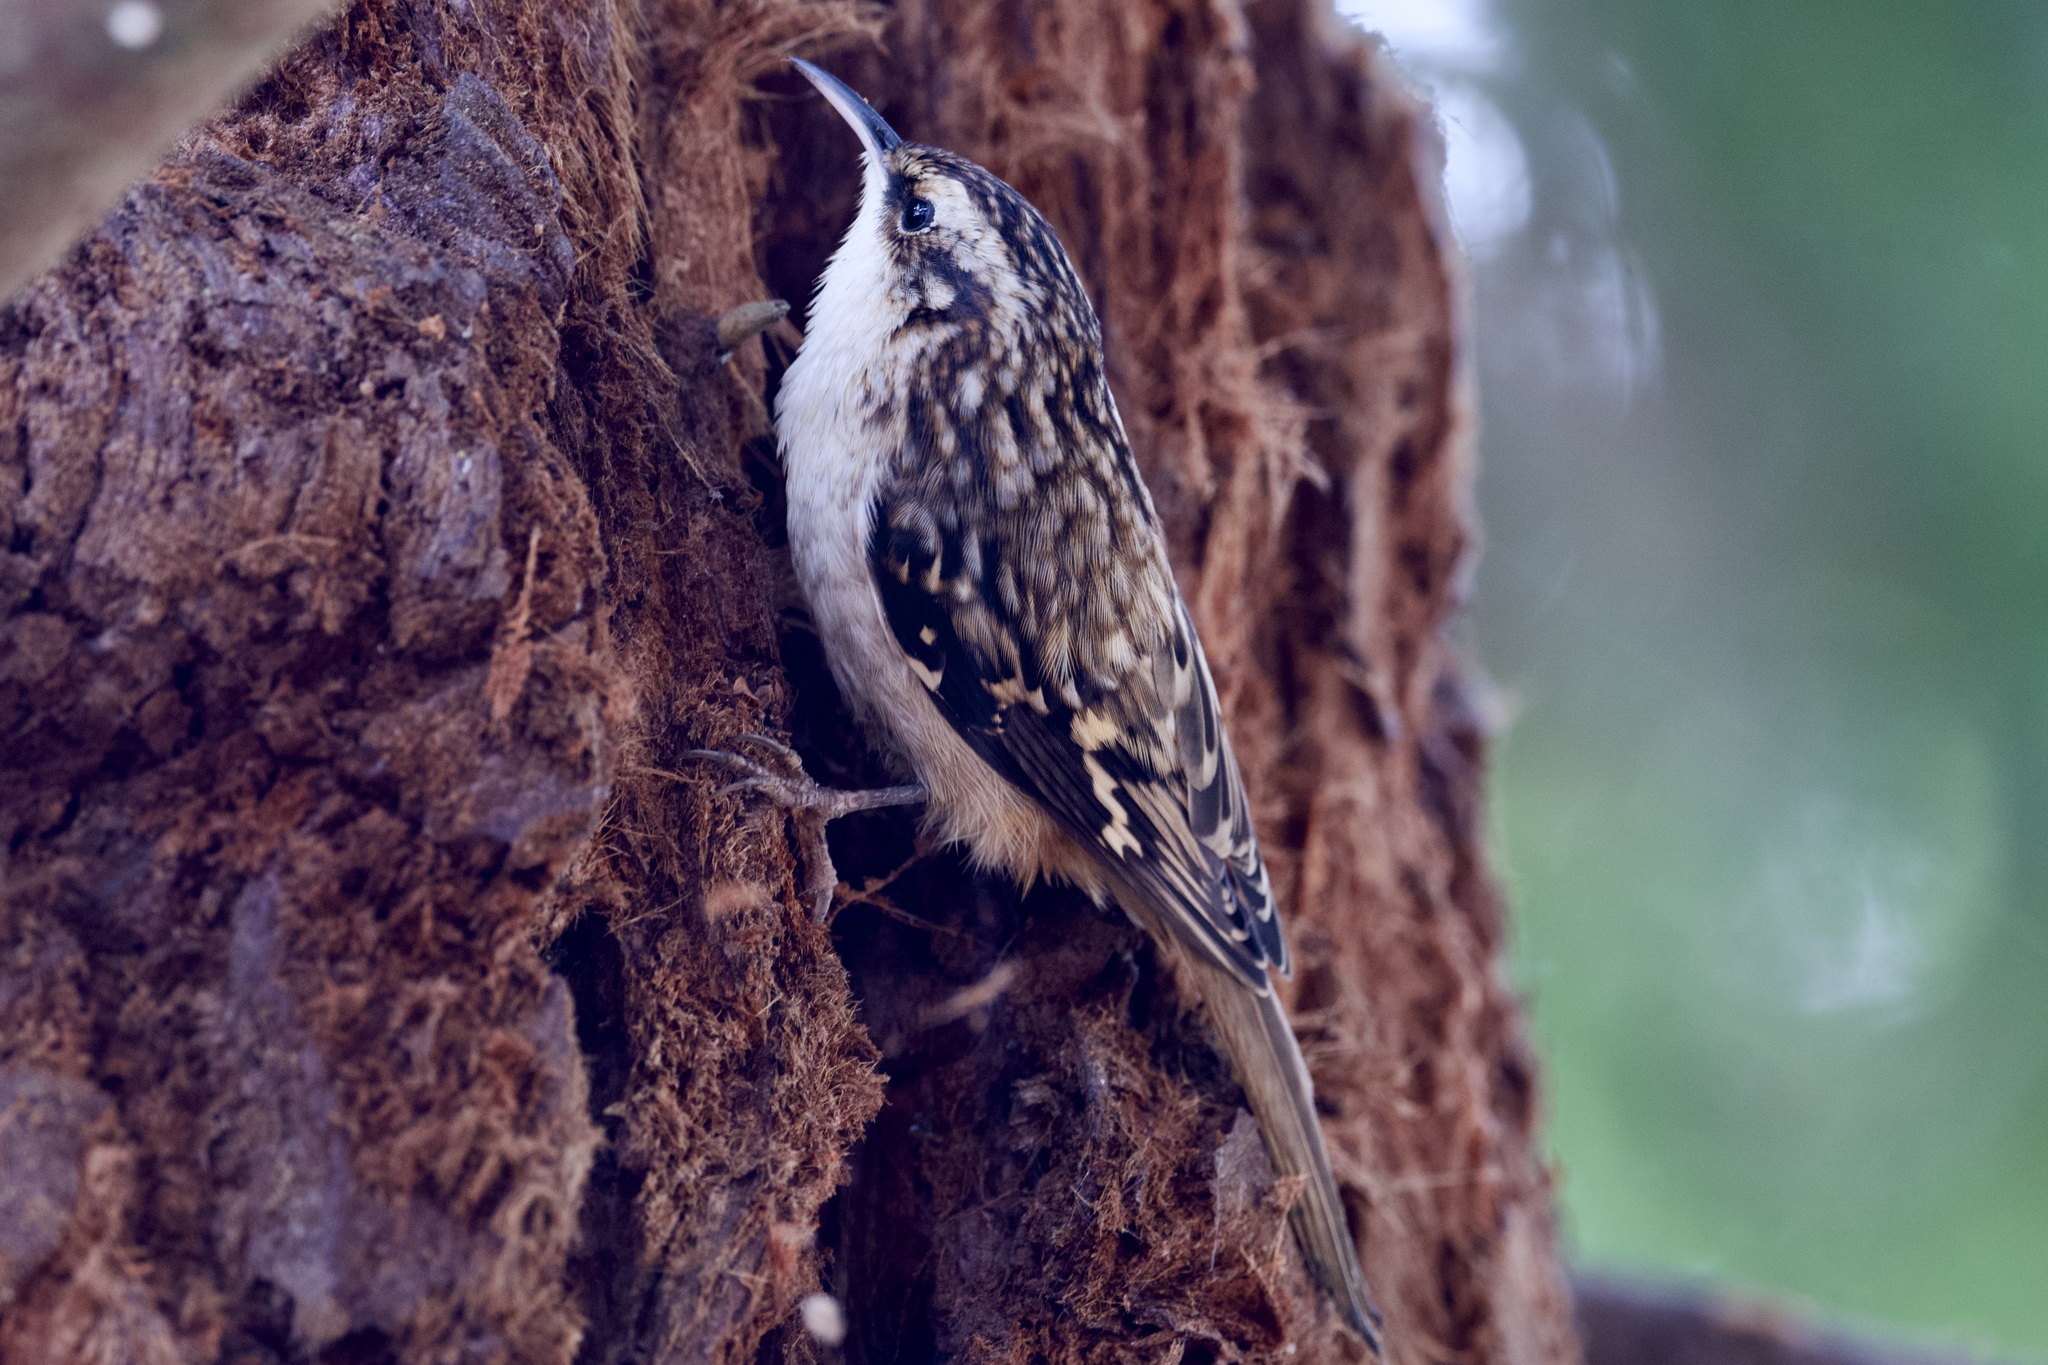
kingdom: Animalia
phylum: Chordata
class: Aves
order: Passeriformes
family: Certhiidae
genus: Certhia
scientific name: Certhia americana
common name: Brown creeper
